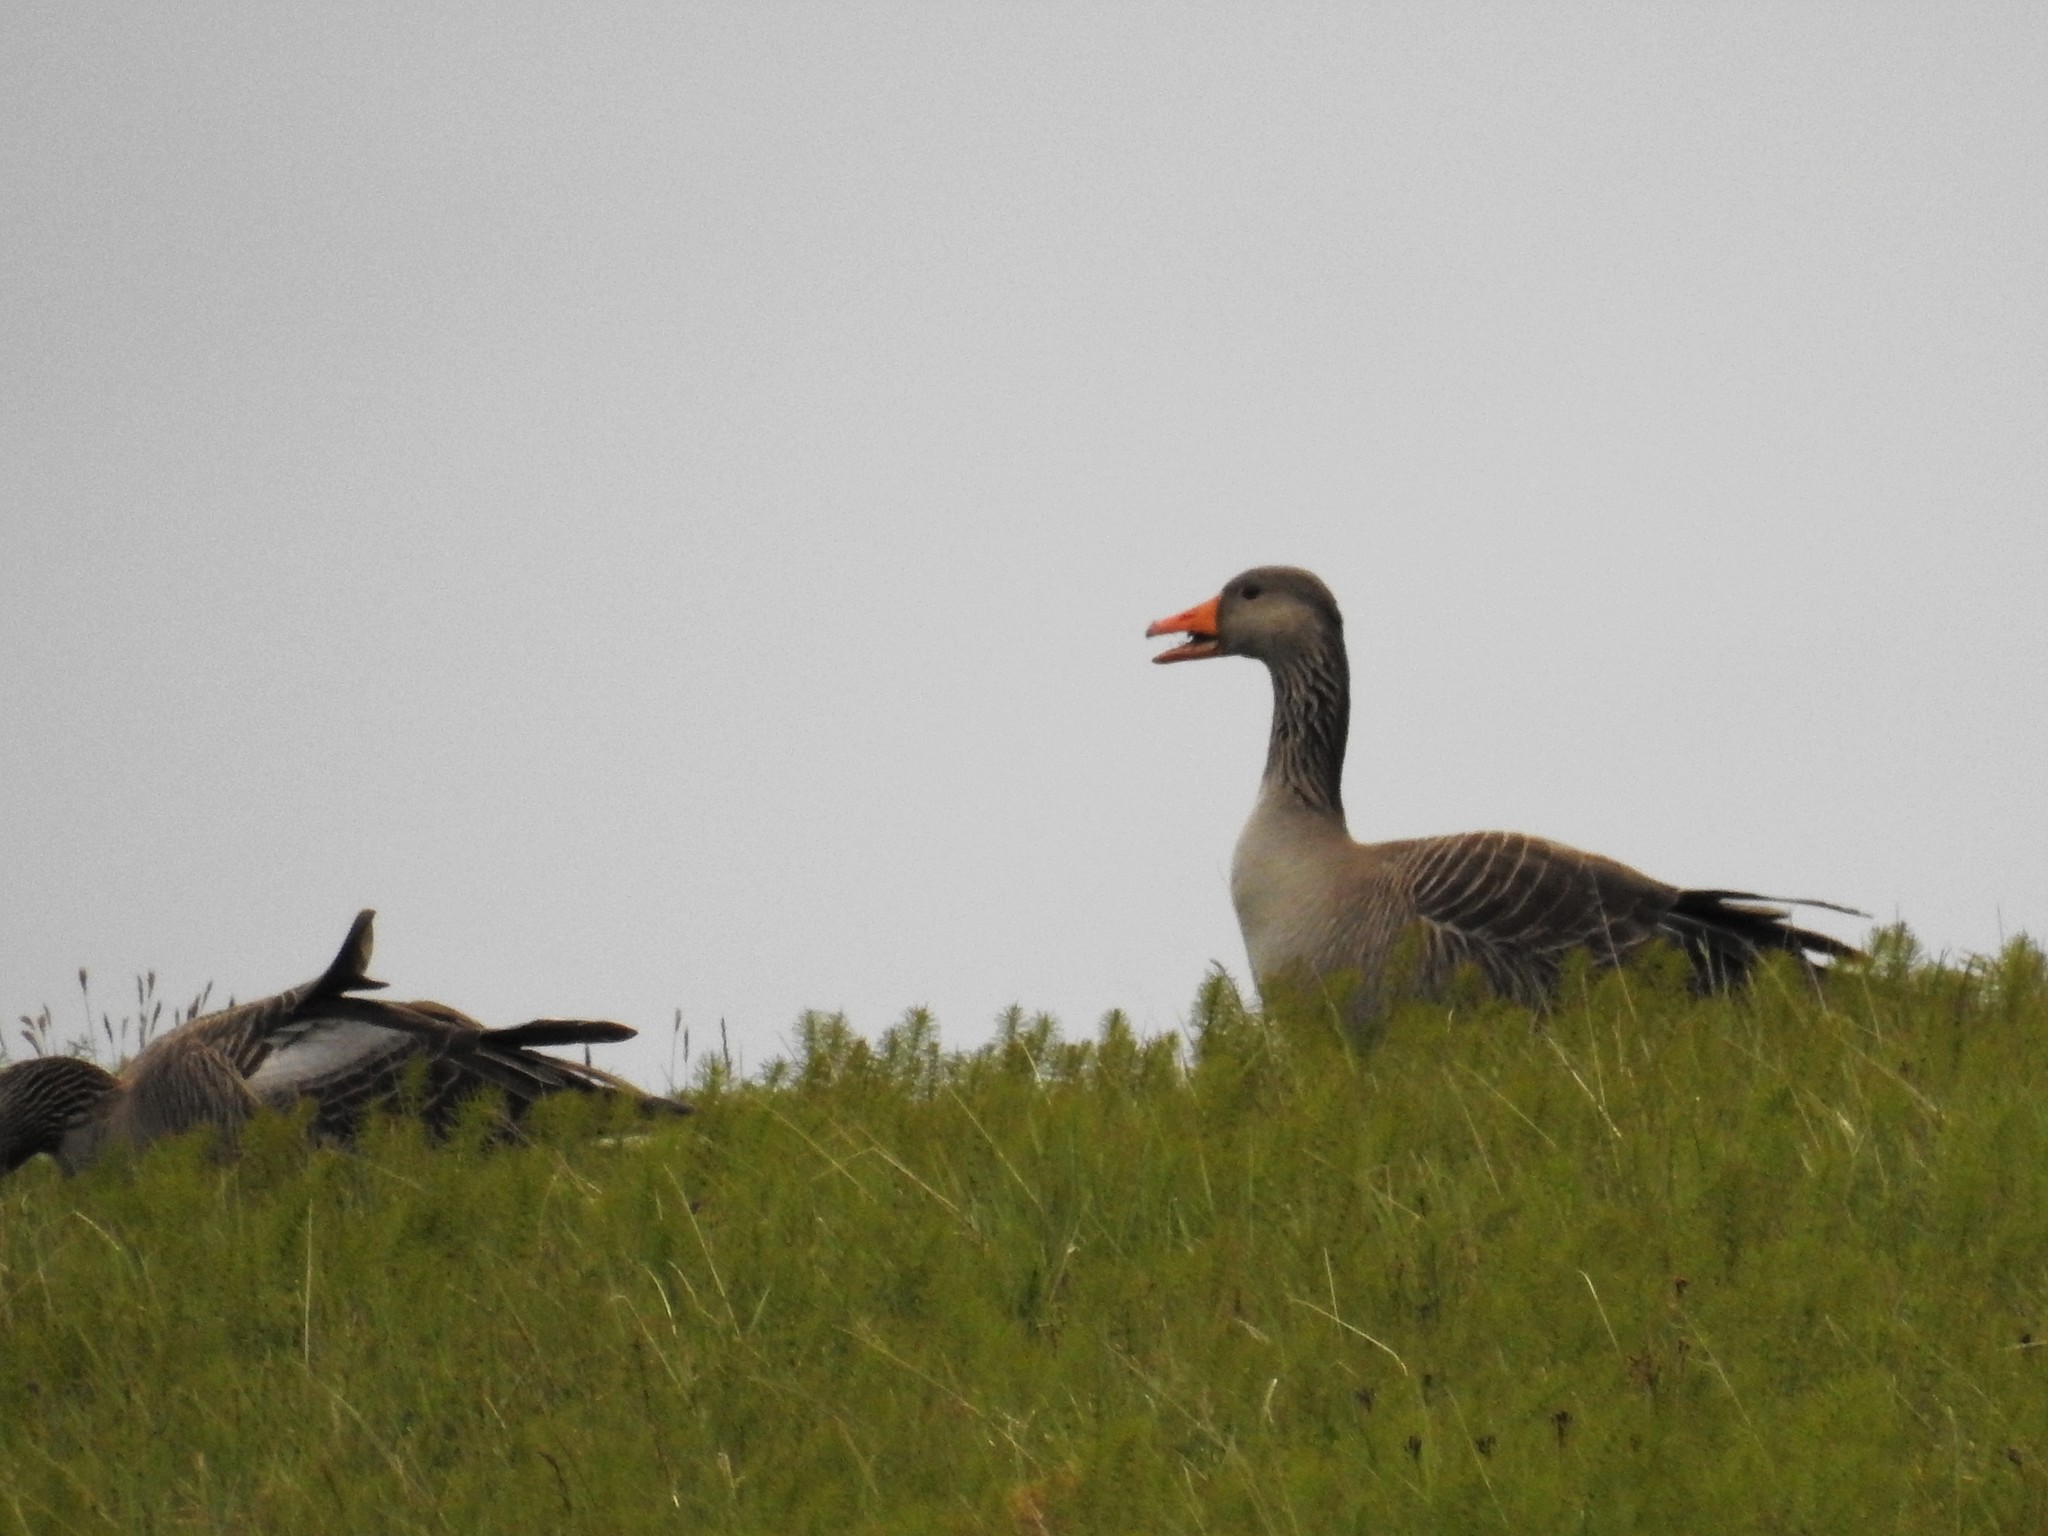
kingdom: Animalia
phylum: Chordata
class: Aves
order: Anseriformes
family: Anatidae
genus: Anser
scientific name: Anser anser
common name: Greylag goose
